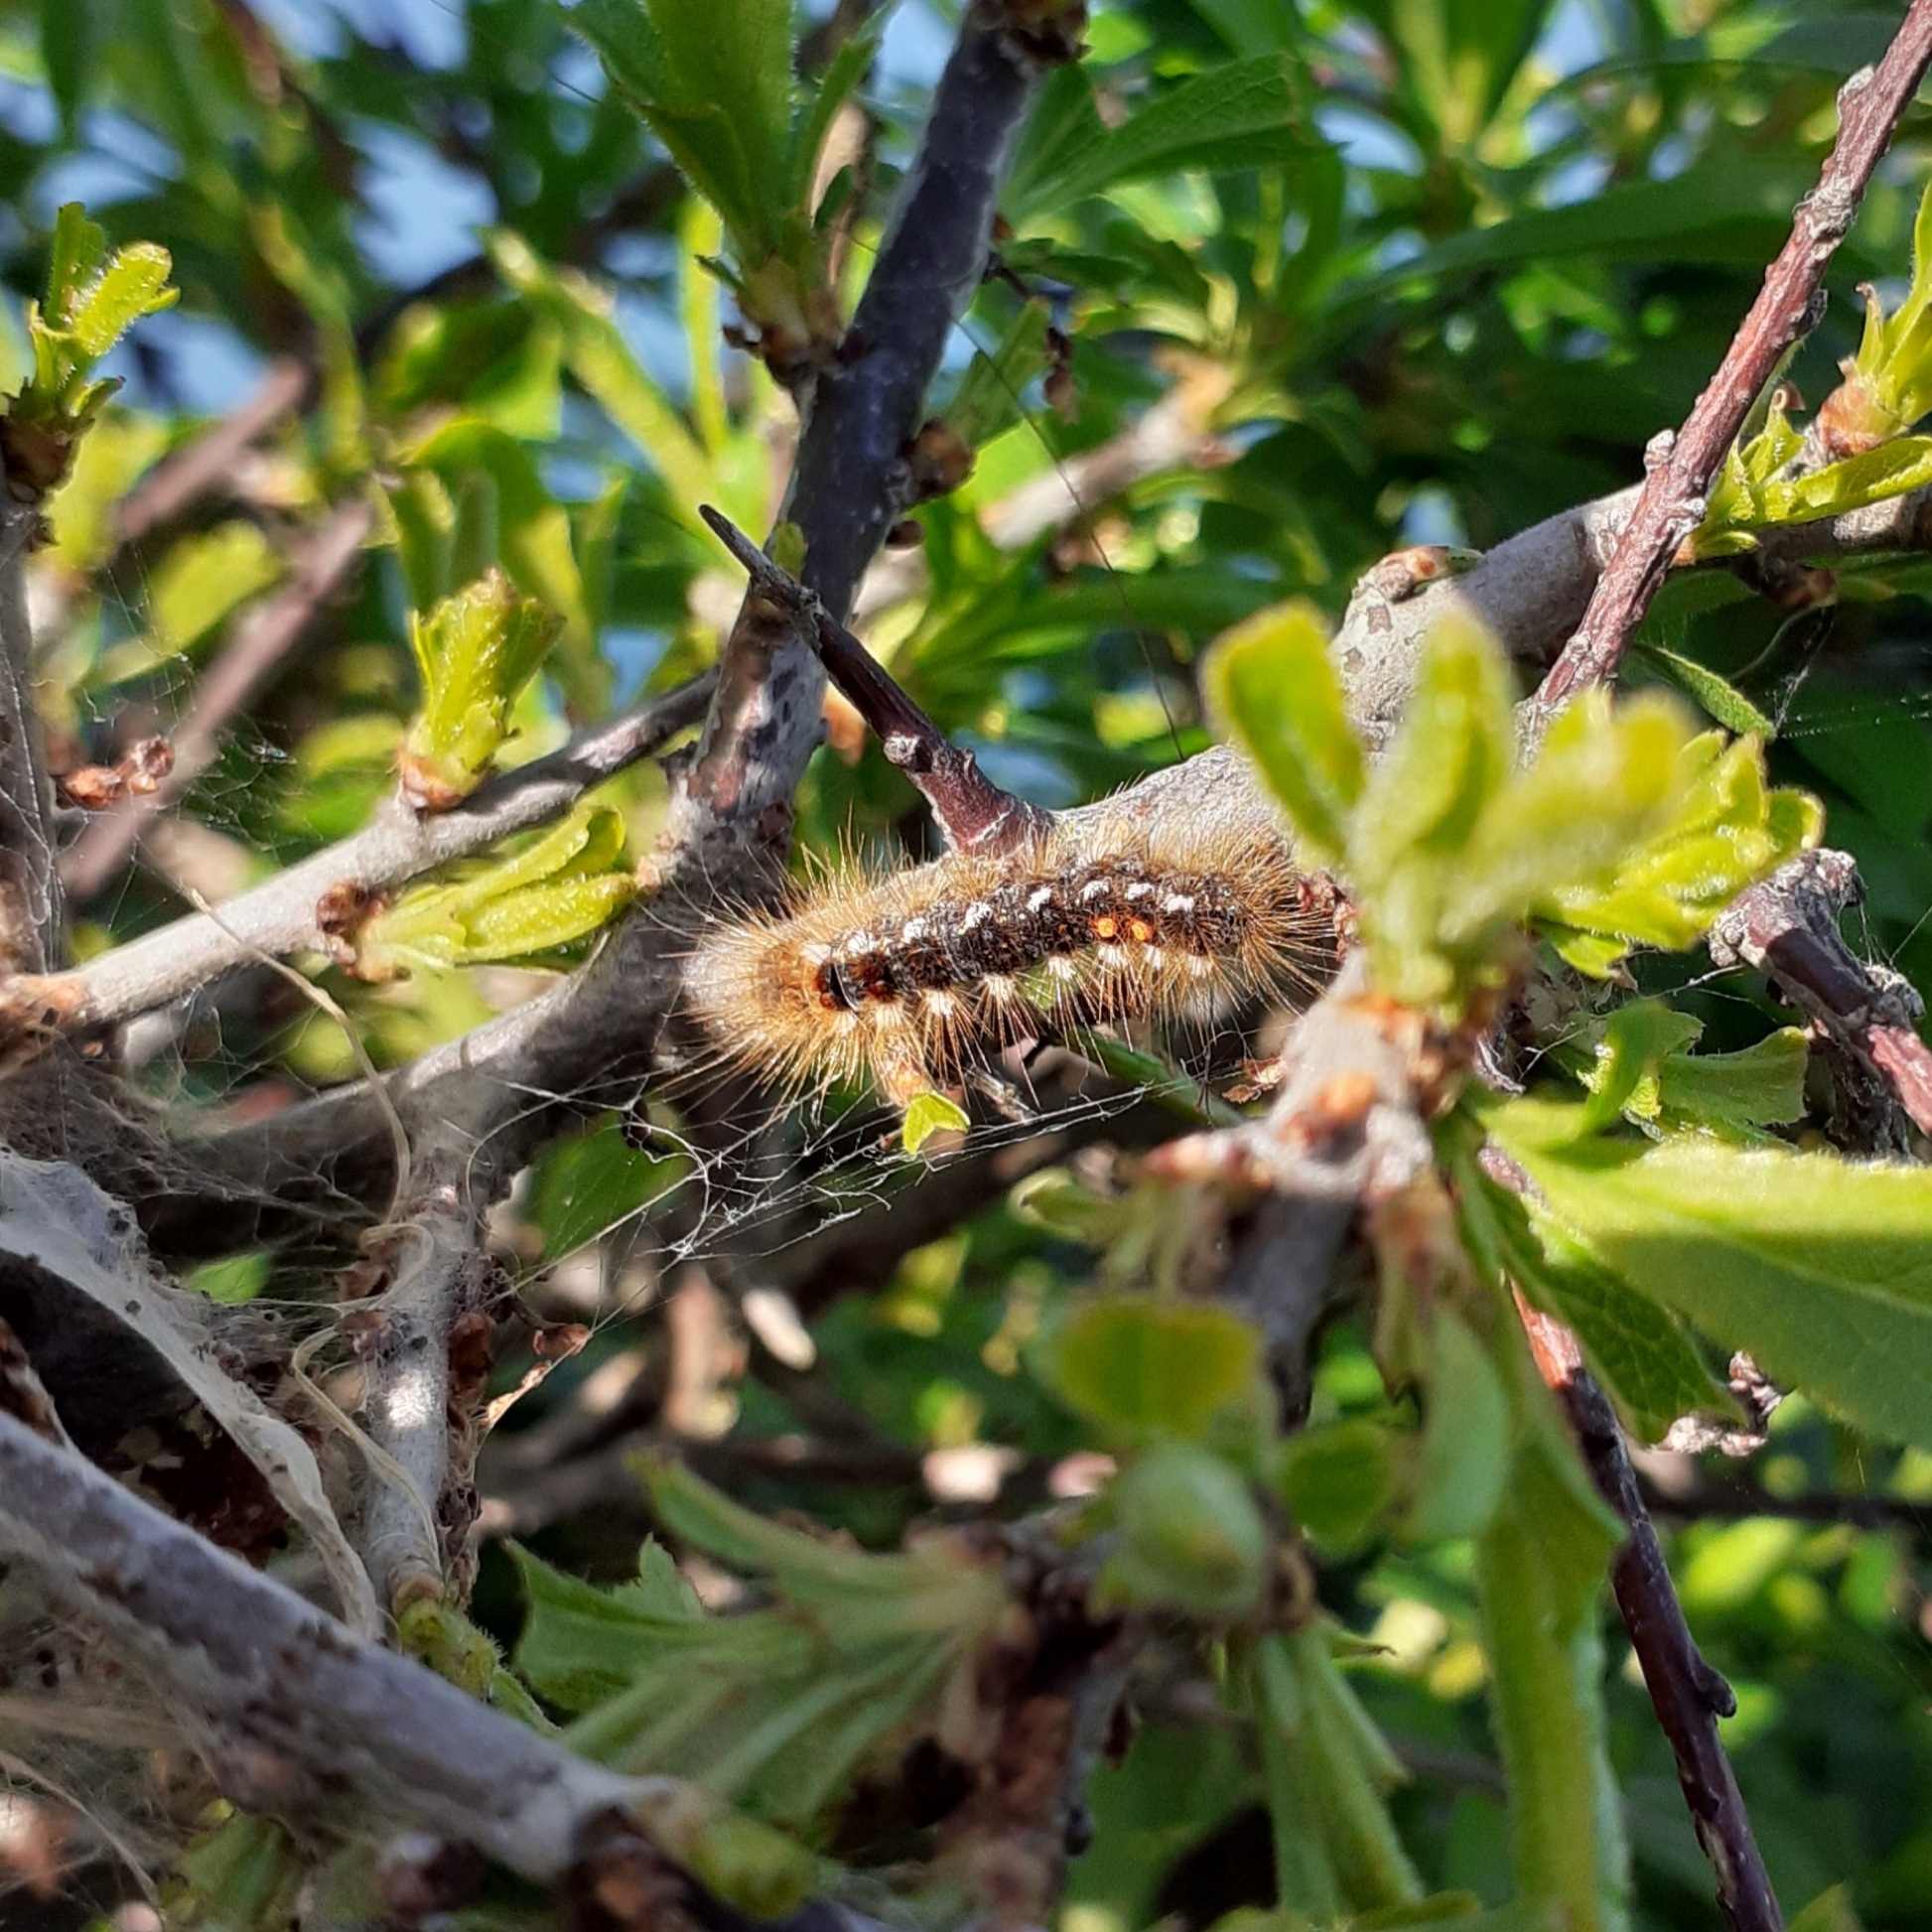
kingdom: Animalia
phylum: Arthropoda
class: Insecta
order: Lepidoptera
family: Erebidae
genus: Euproctis
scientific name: Euproctis chrysorrhoea
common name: Brown-tail
